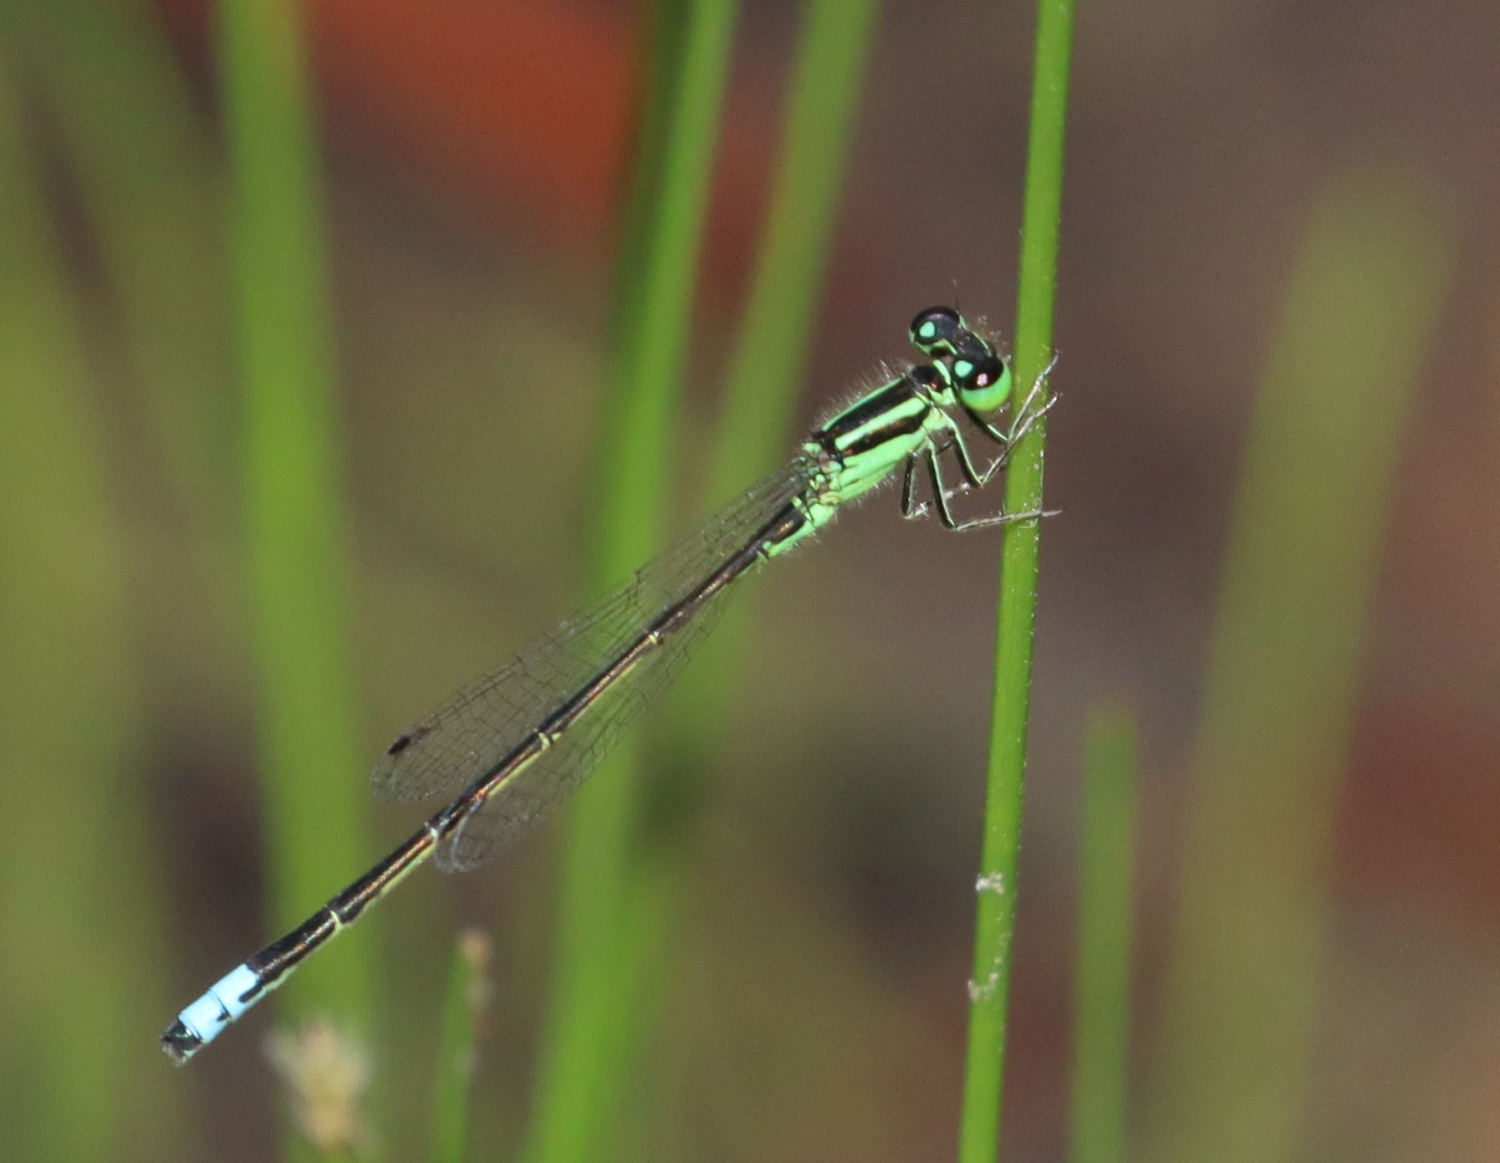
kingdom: Animalia
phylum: Arthropoda
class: Insecta
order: Odonata
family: Coenagrionidae
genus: Ischnura
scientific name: Ischnura verticalis
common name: Eastern forktail
